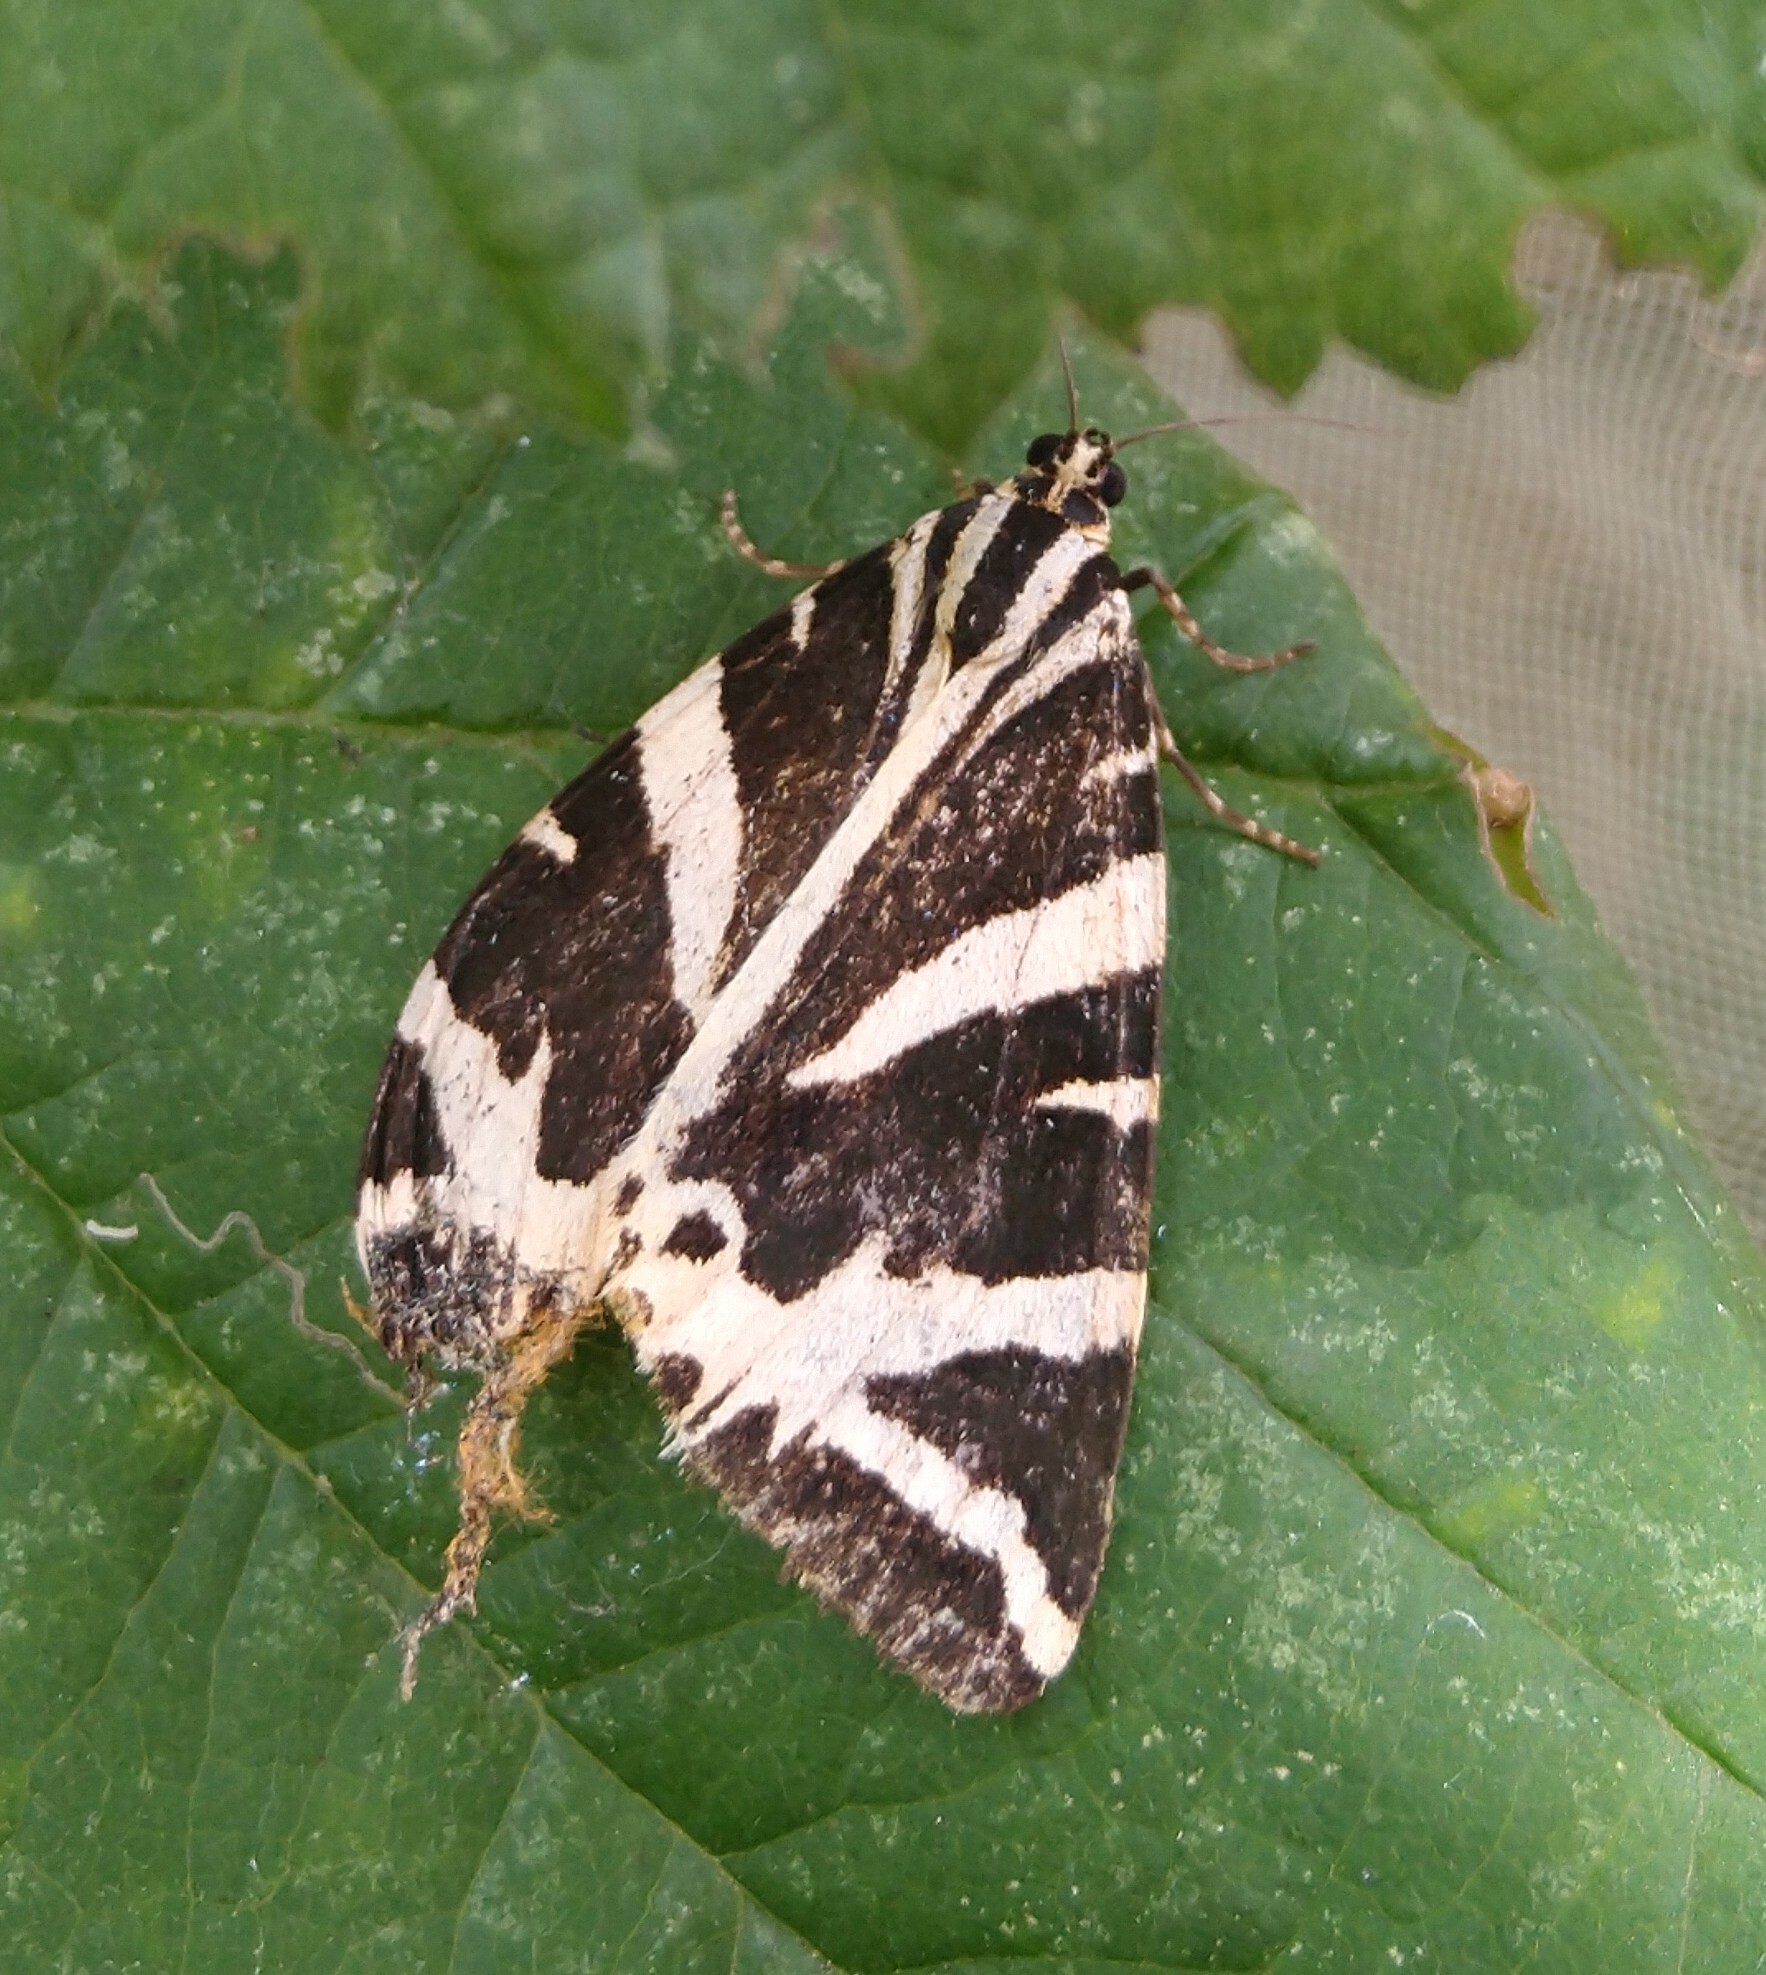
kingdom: Animalia
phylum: Arthropoda
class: Insecta
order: Lepidoptera
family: Erebidae
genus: Euplagia
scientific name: Euplagia quadripunctaria
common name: Jersey tiger
